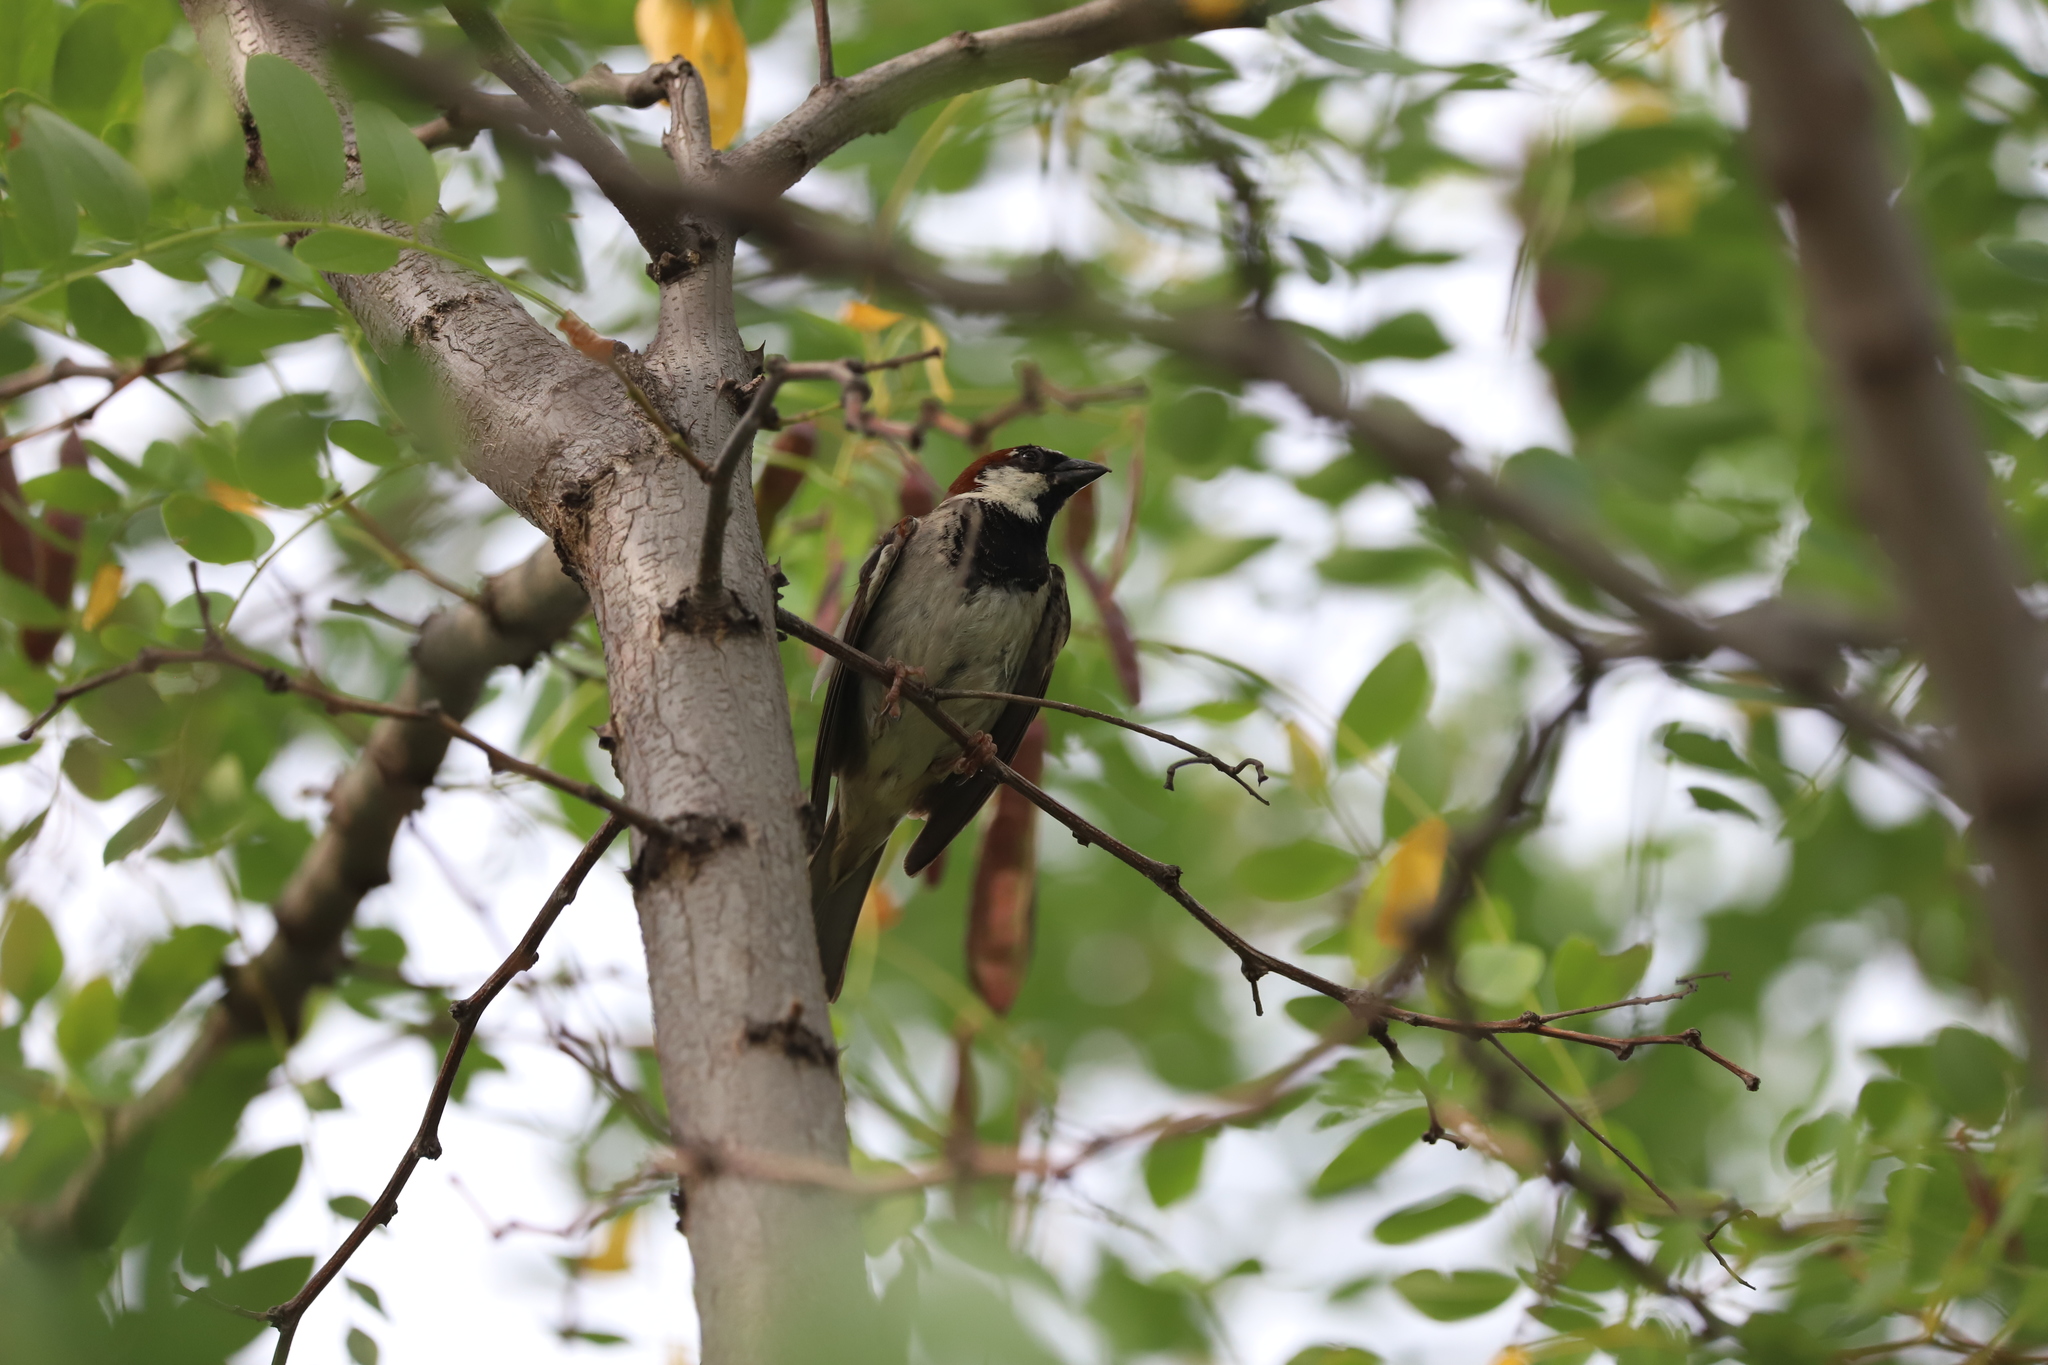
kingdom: Animalia
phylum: Chordata
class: Aves
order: Passeriformes
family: Passeridae
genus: Passer
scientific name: Passer domesticus
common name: House sparrow
